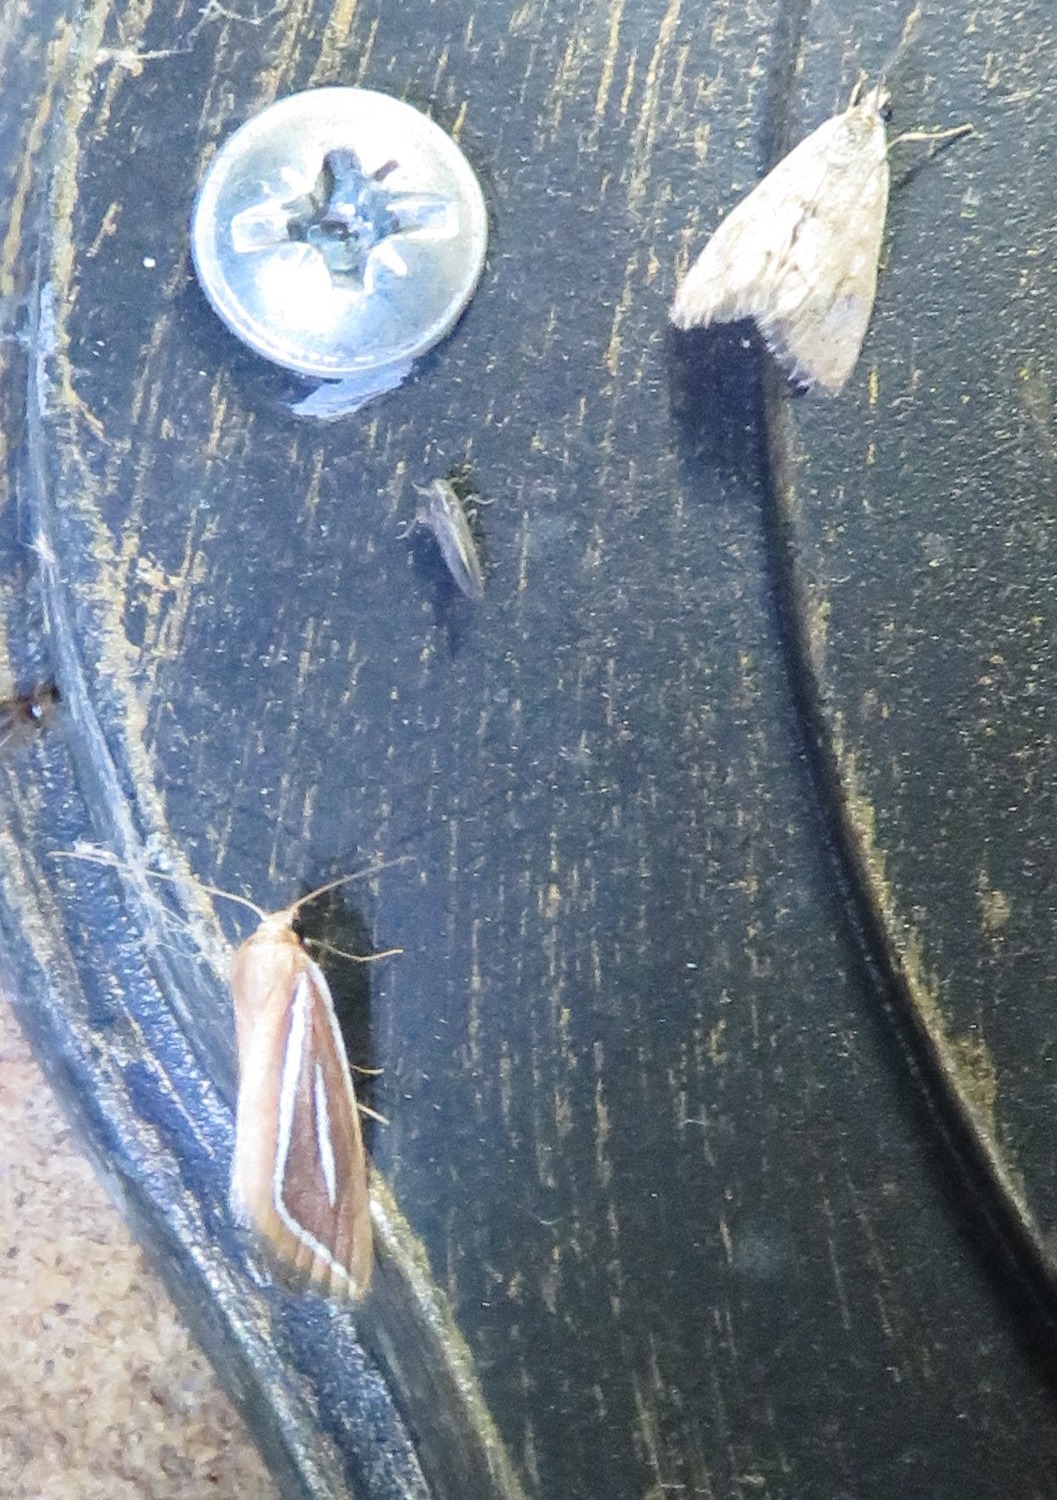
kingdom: Animalia
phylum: Arthropoda
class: Insecta
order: Lepidoptera
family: Geometridae
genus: Pseudomaenas
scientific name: Pseudomaenas leucograpta
